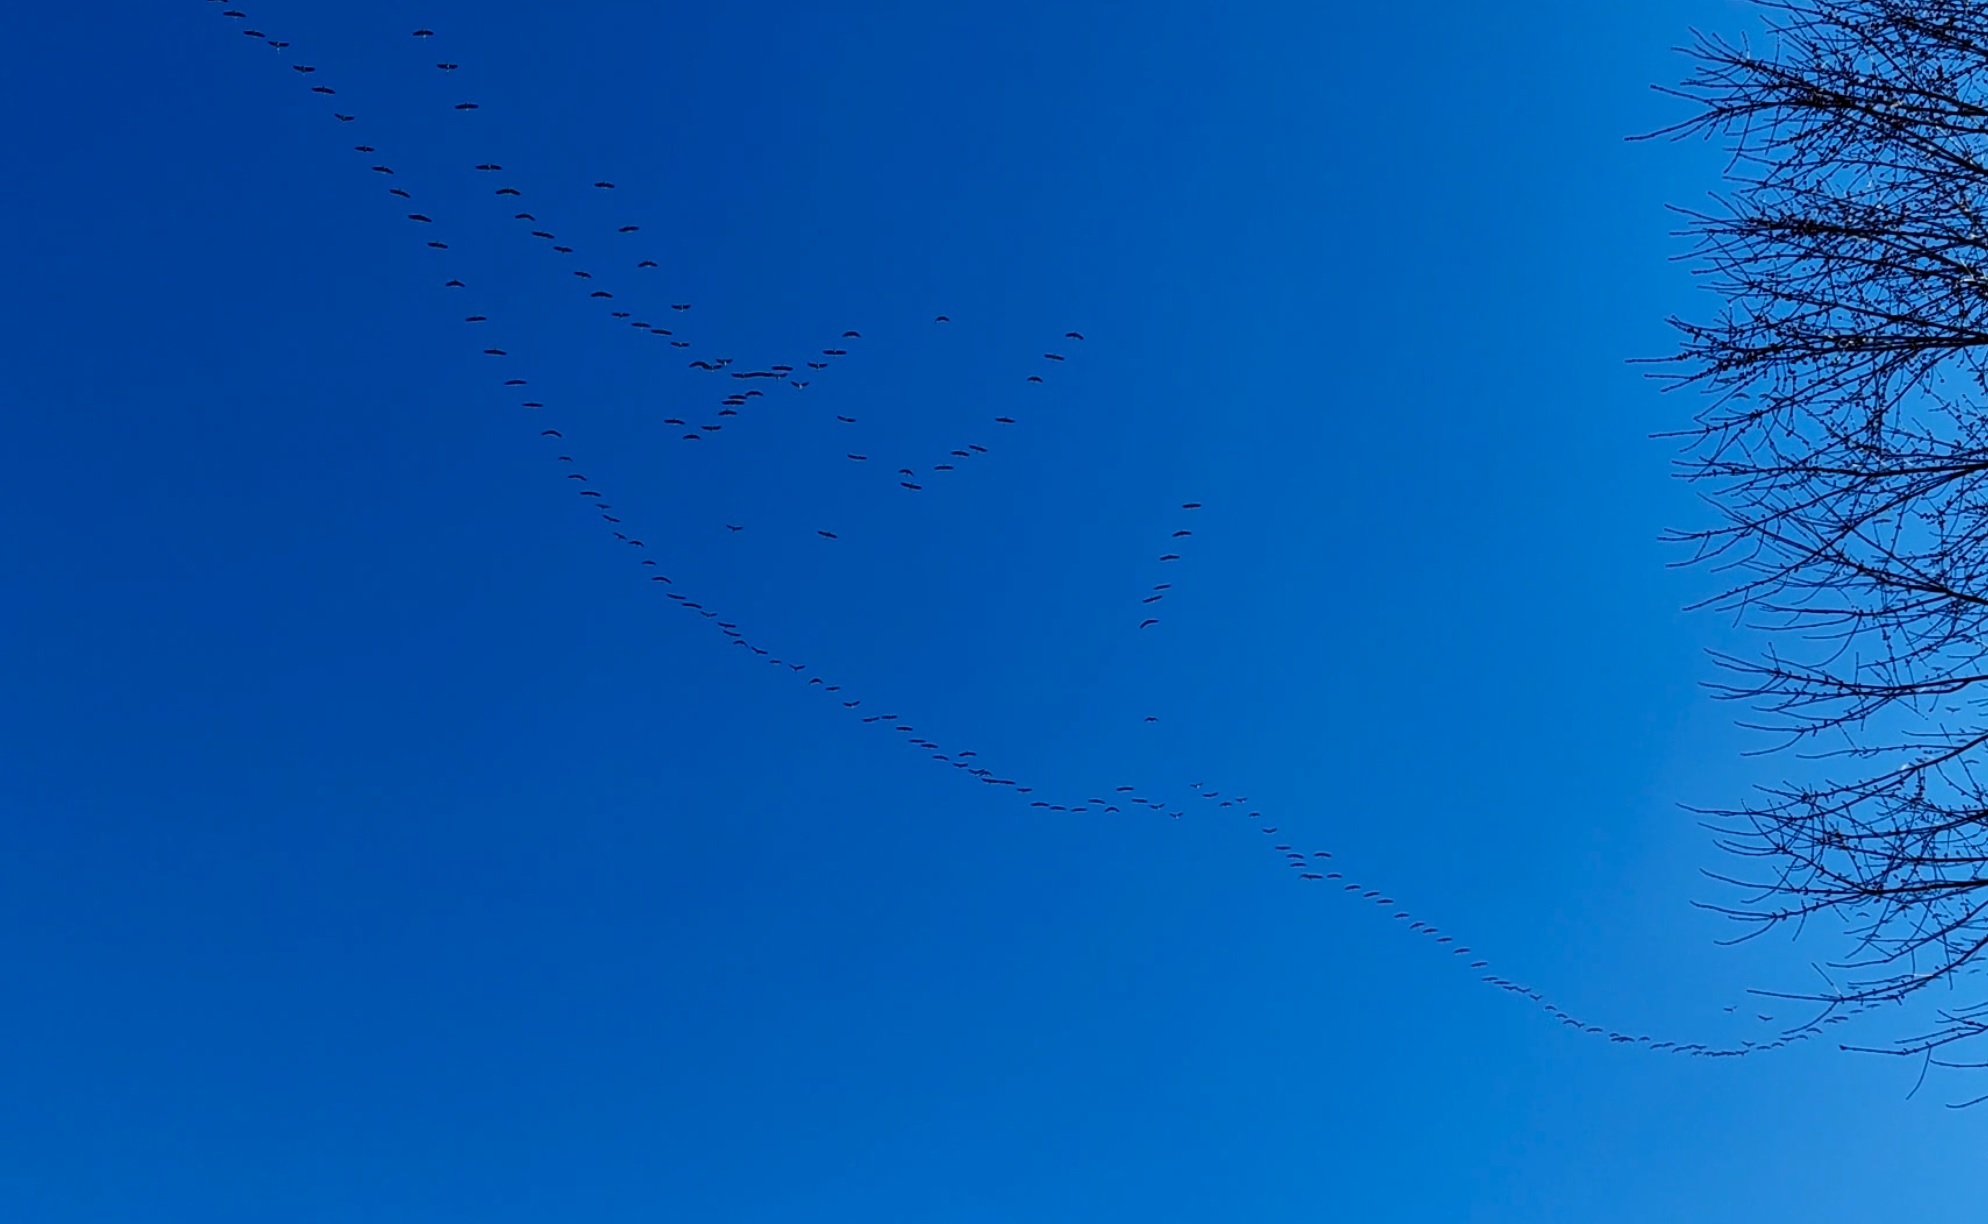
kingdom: Animalia
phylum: Chordata
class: Aves
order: Gruiformes
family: Gruidae
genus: Grus
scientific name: Grus grus
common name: Common crane
